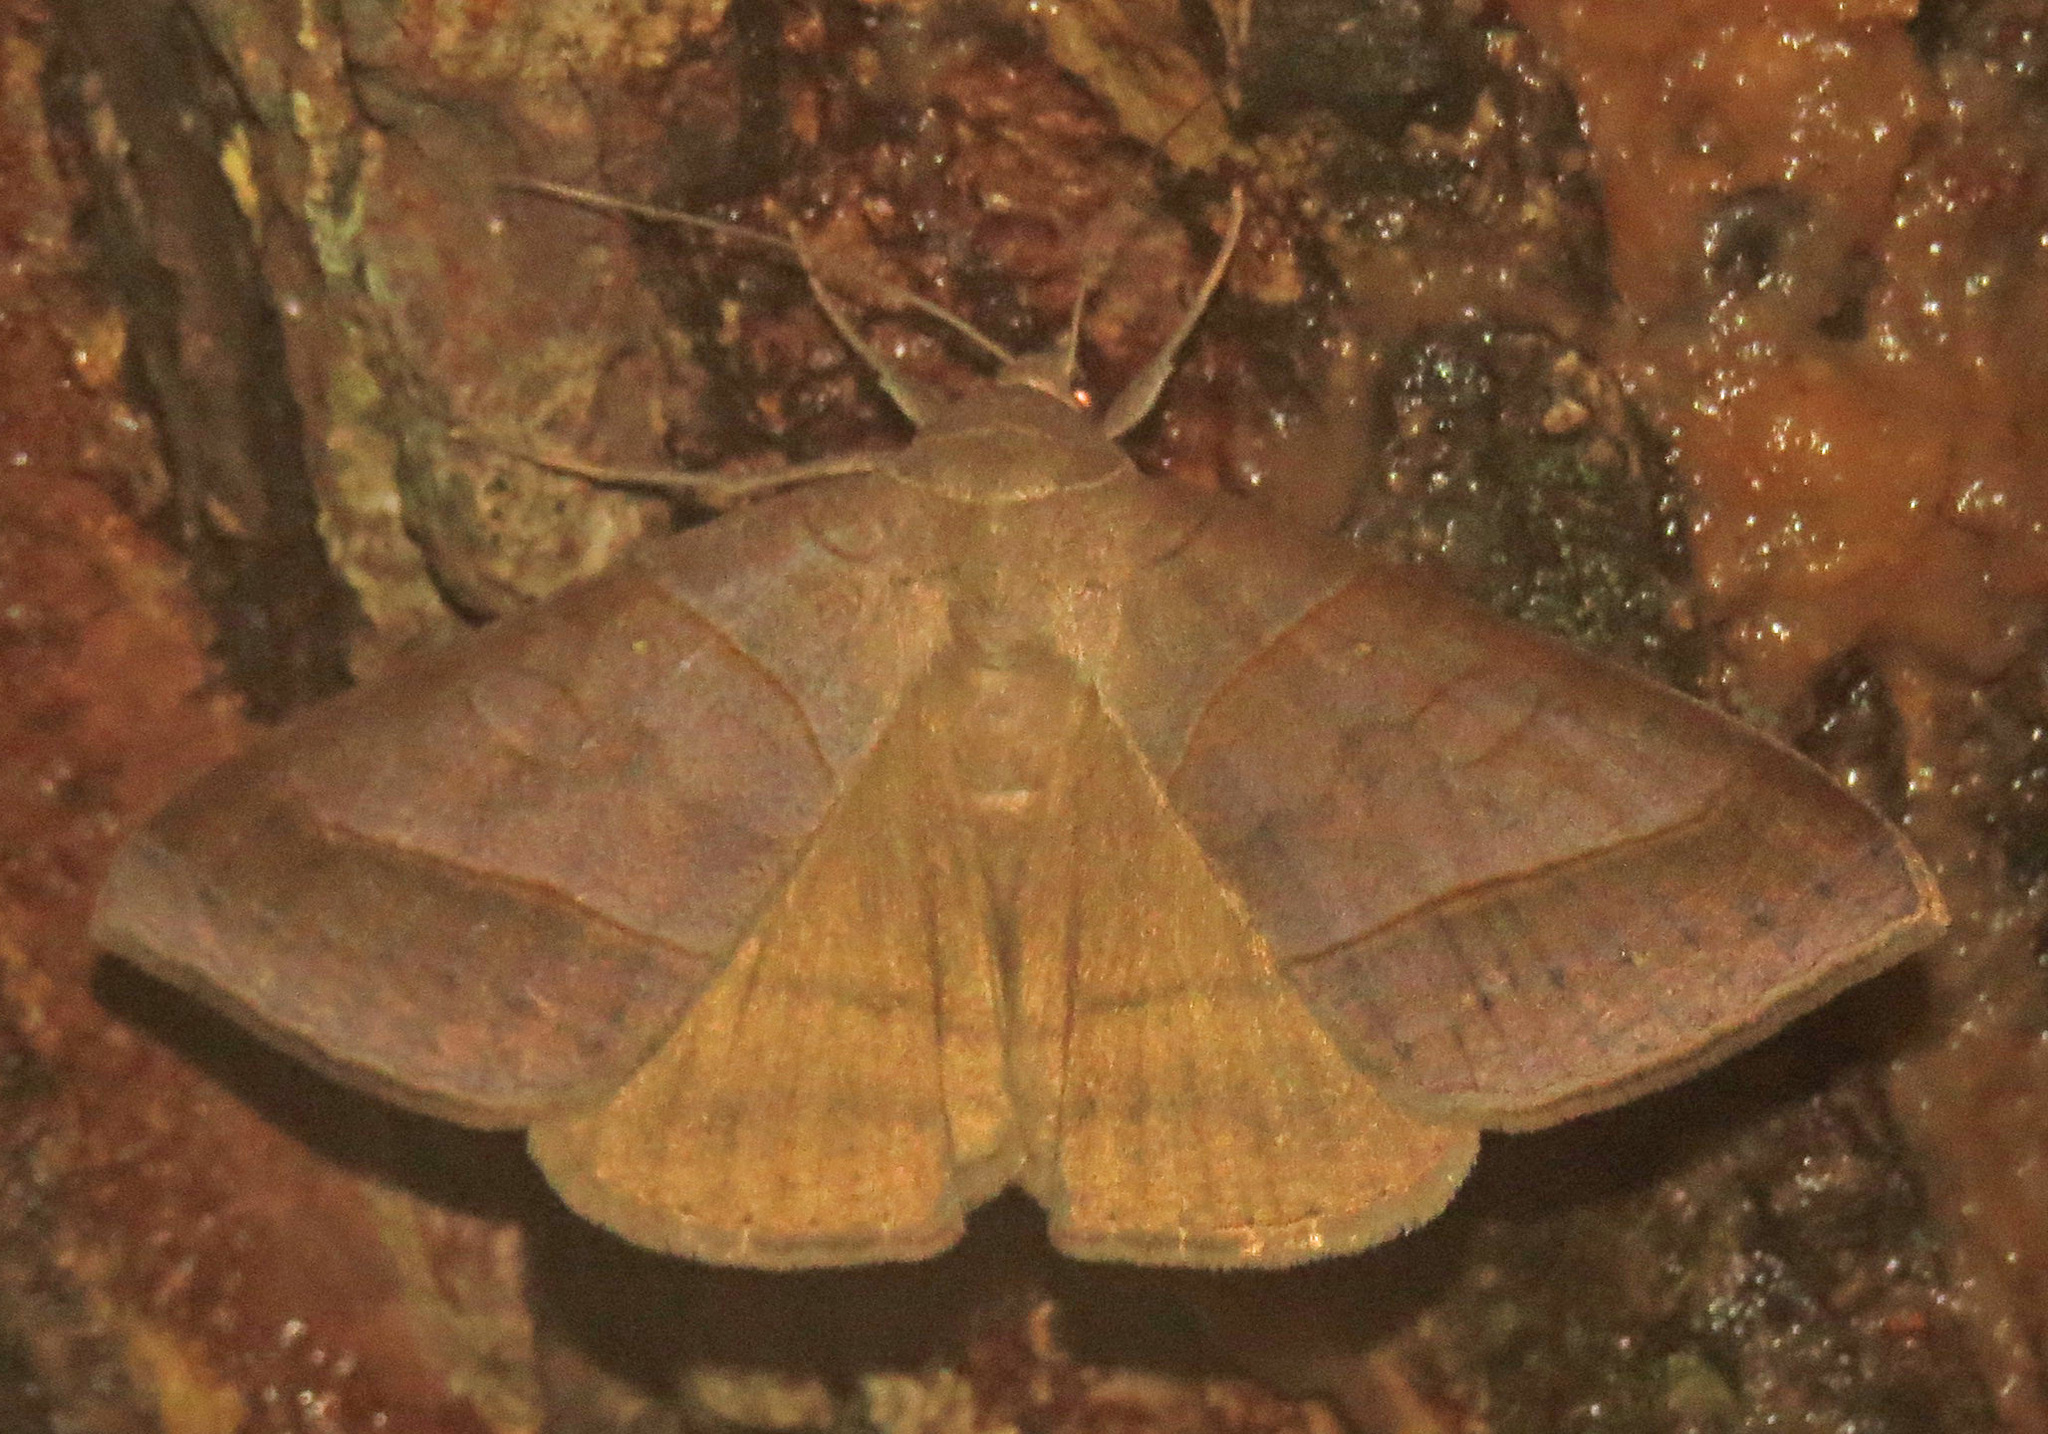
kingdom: Animalia
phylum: Arthropoda
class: Insecta
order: Lepidoptera
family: Erebidae
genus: Mocis
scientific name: Mocis texana
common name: Texas mocis moth
